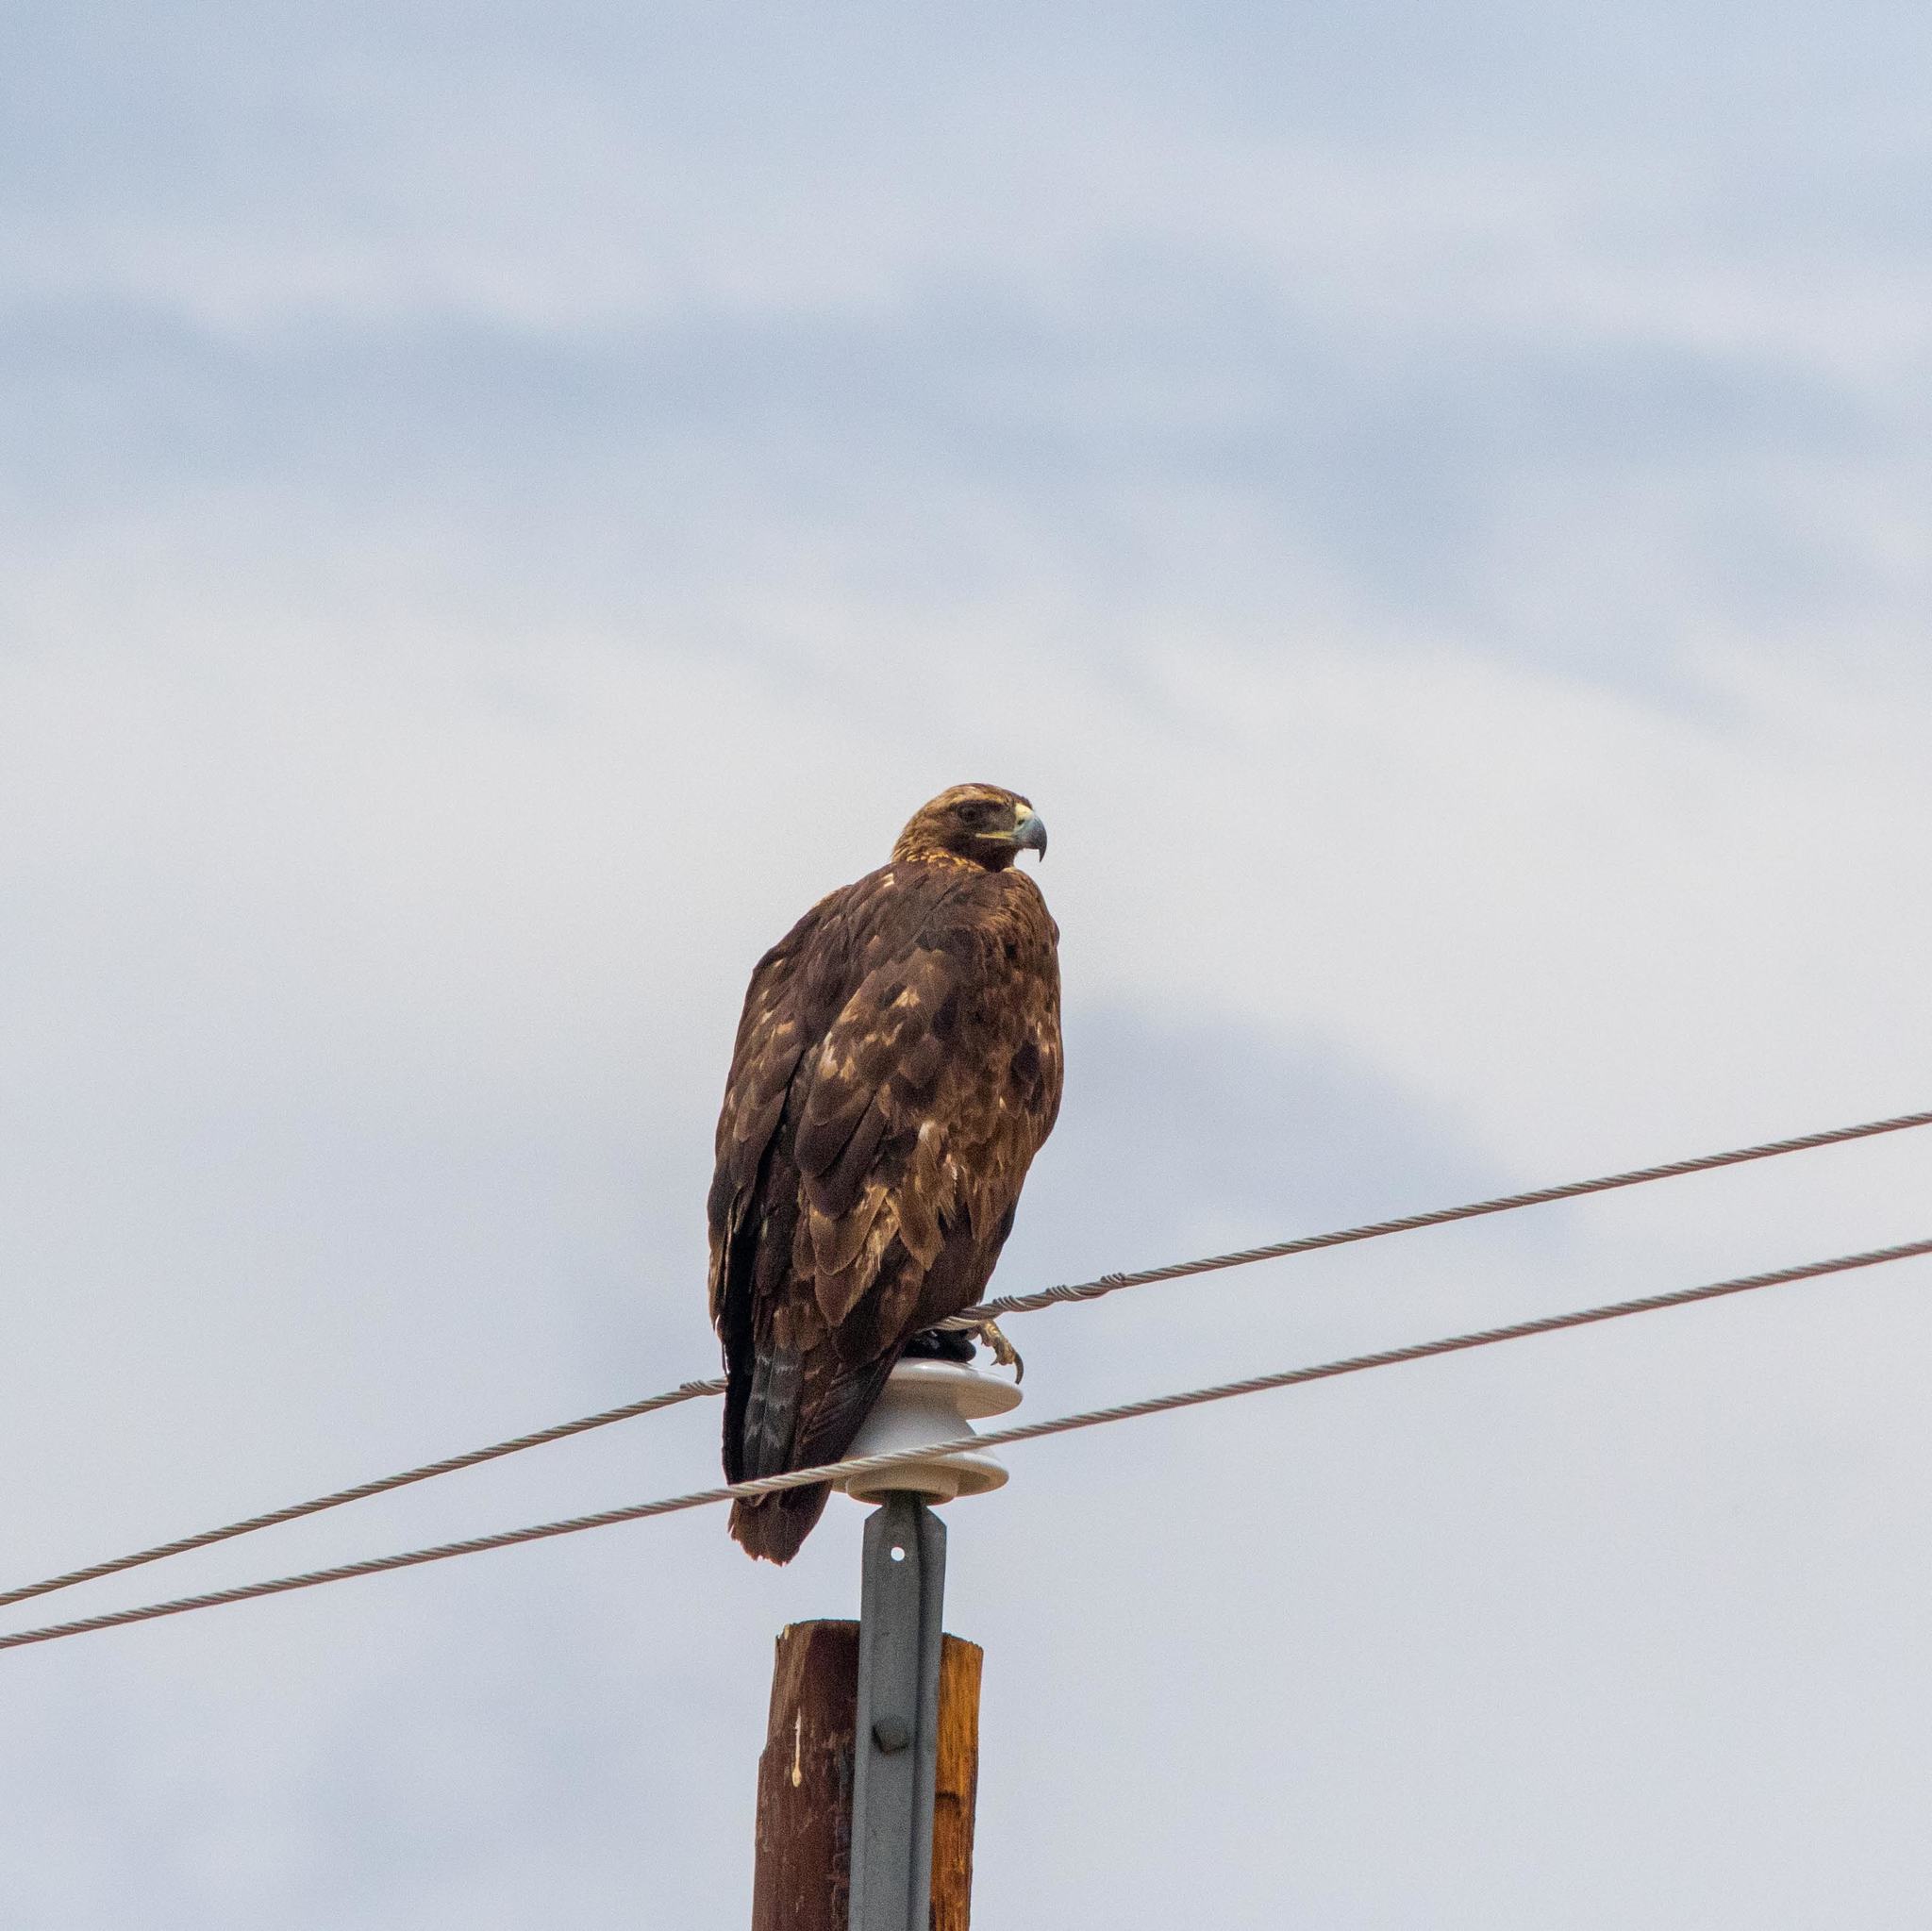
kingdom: Animalia
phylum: Chordata
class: Aves
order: Accipitriformes
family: Accipitridae
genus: Aquila
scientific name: Aquila chrysaetos
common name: Golden eagle
